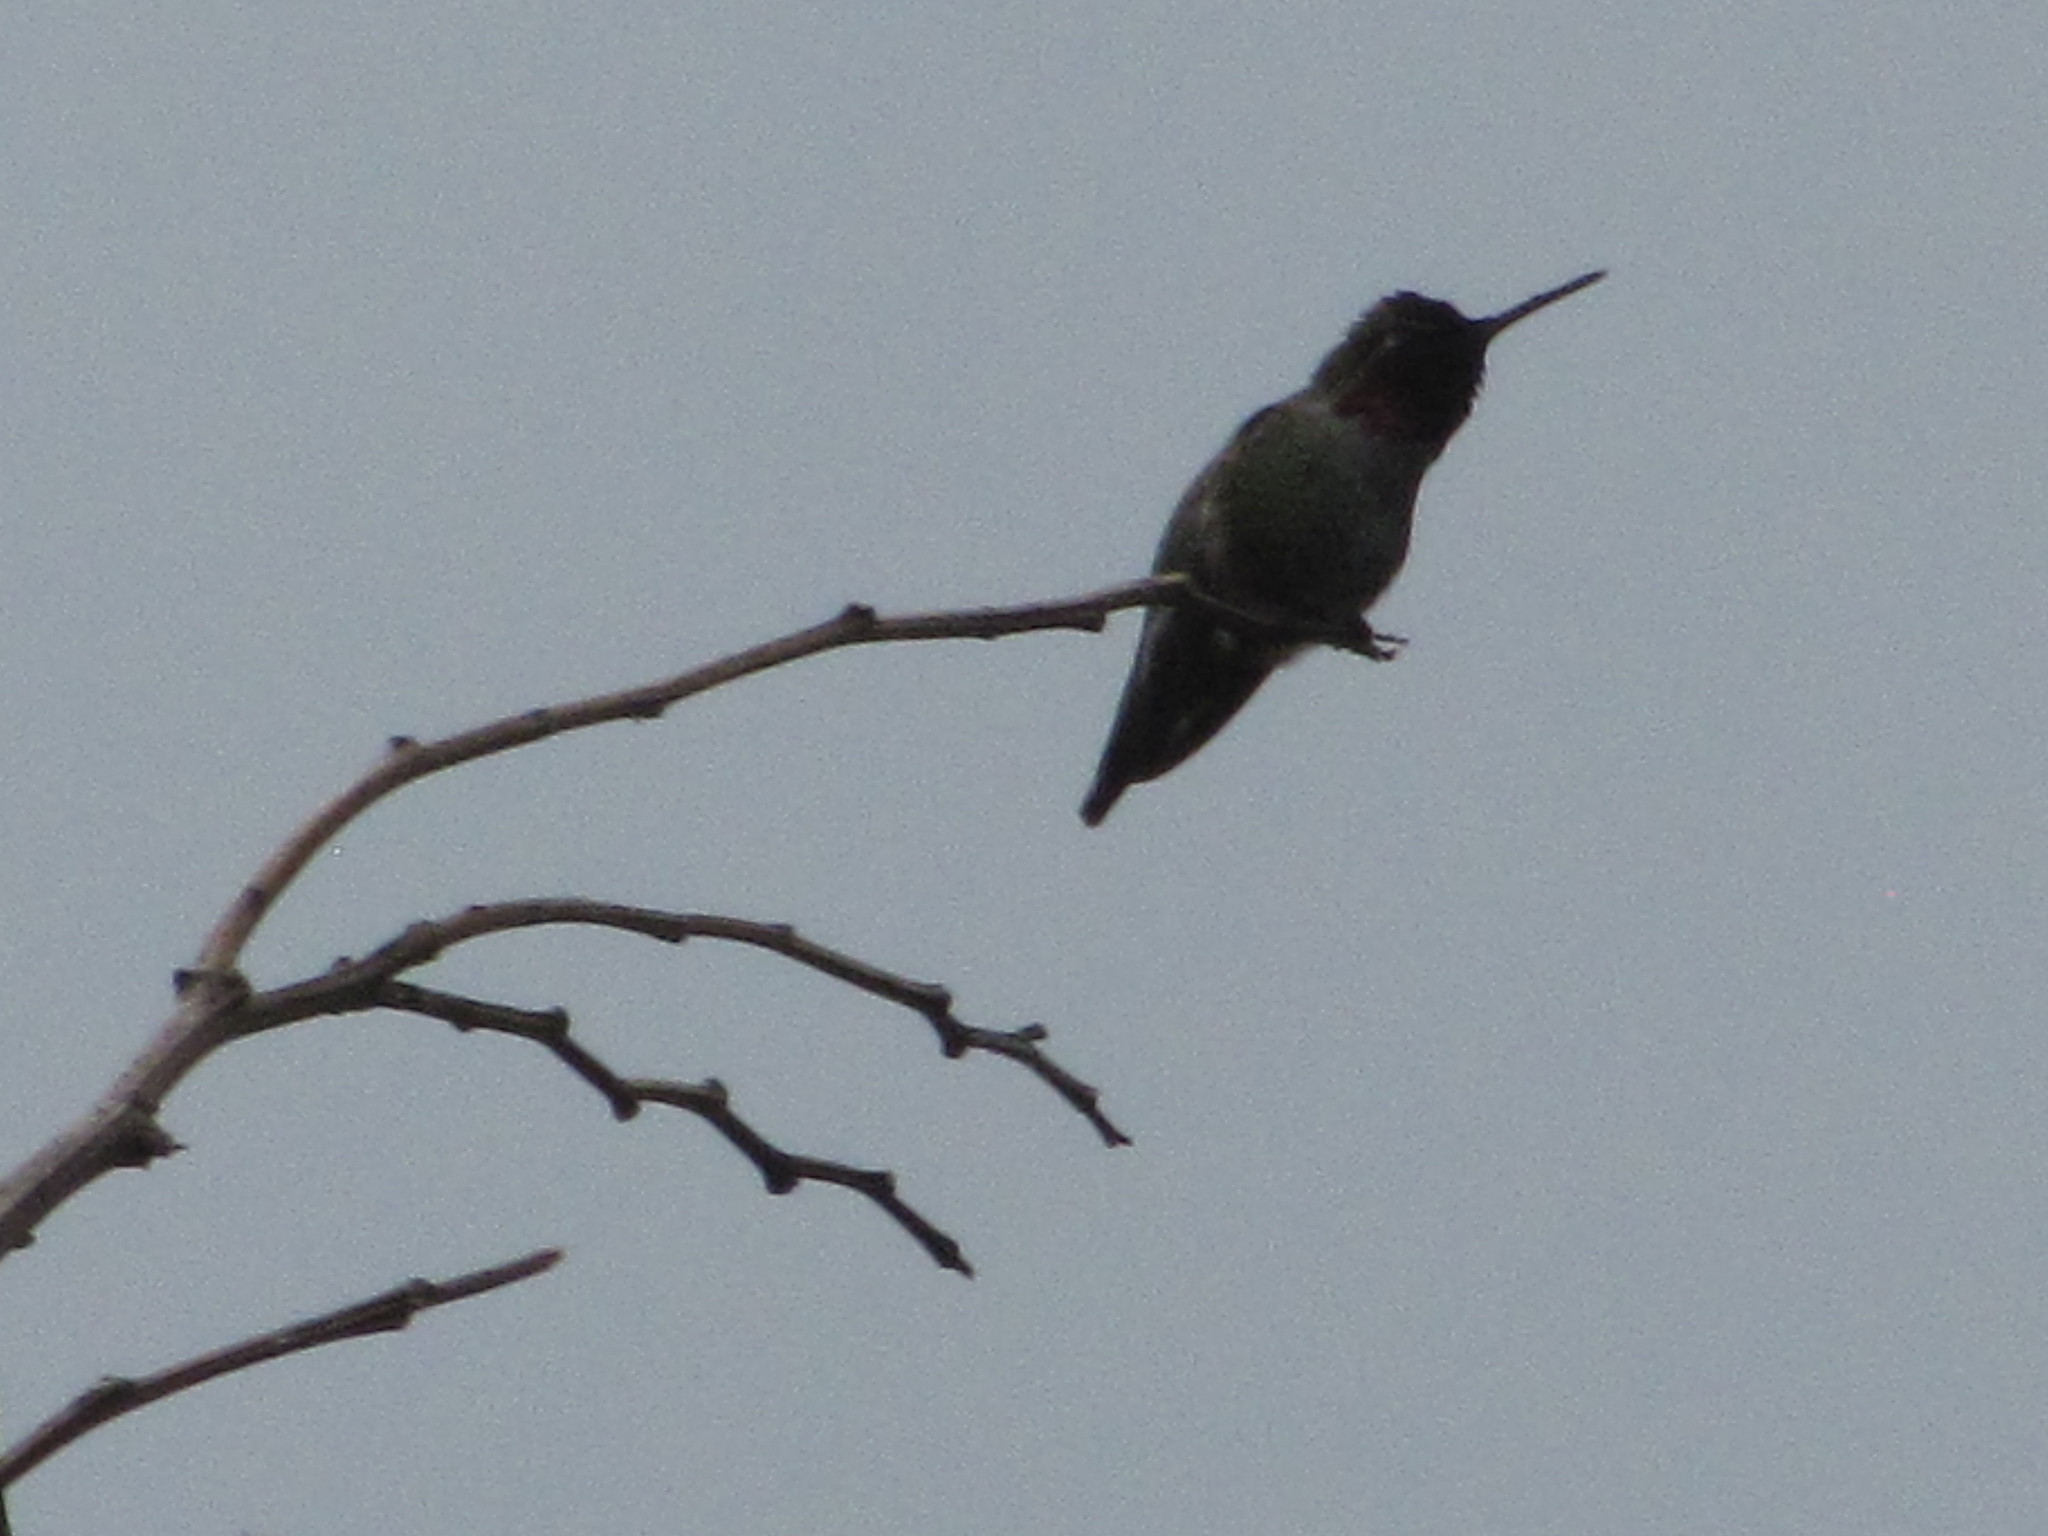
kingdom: Animalia
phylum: Chordata
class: Aves
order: Apodiformes
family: Trochilidae
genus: Calypte
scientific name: Calypte anna
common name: Anna's hummingbird
